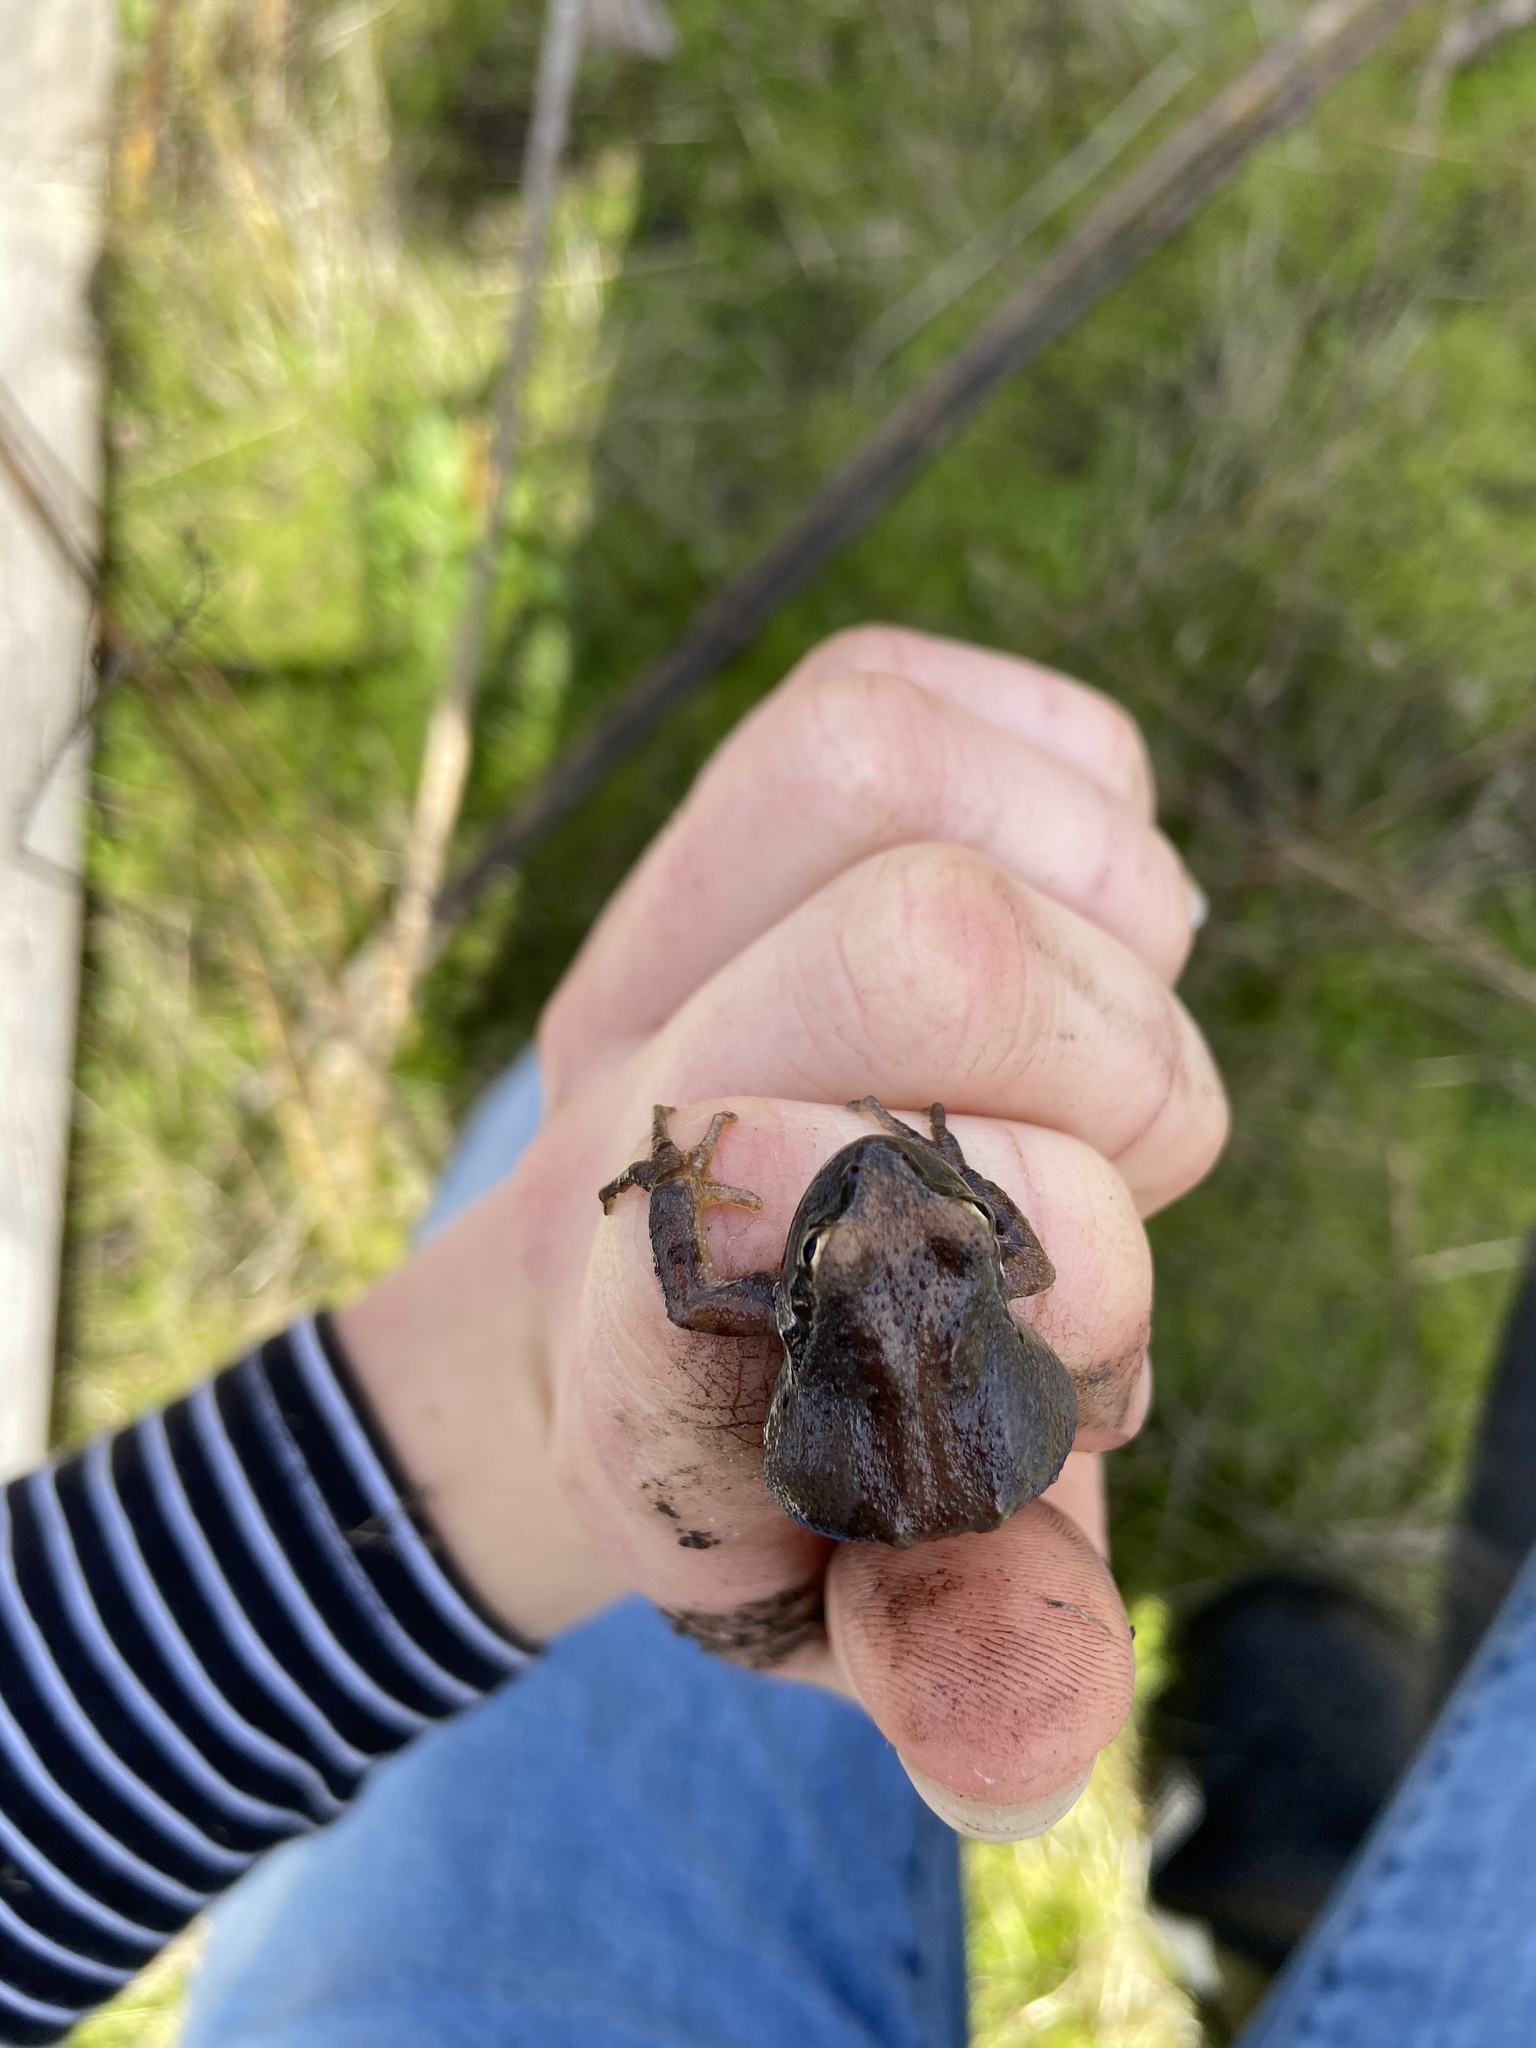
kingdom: Animalia
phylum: Chordata
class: Amphibia
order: Anura
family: Hylidae
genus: Pseudacris
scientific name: Pseudacris regilla
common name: Pacific chorus frog
